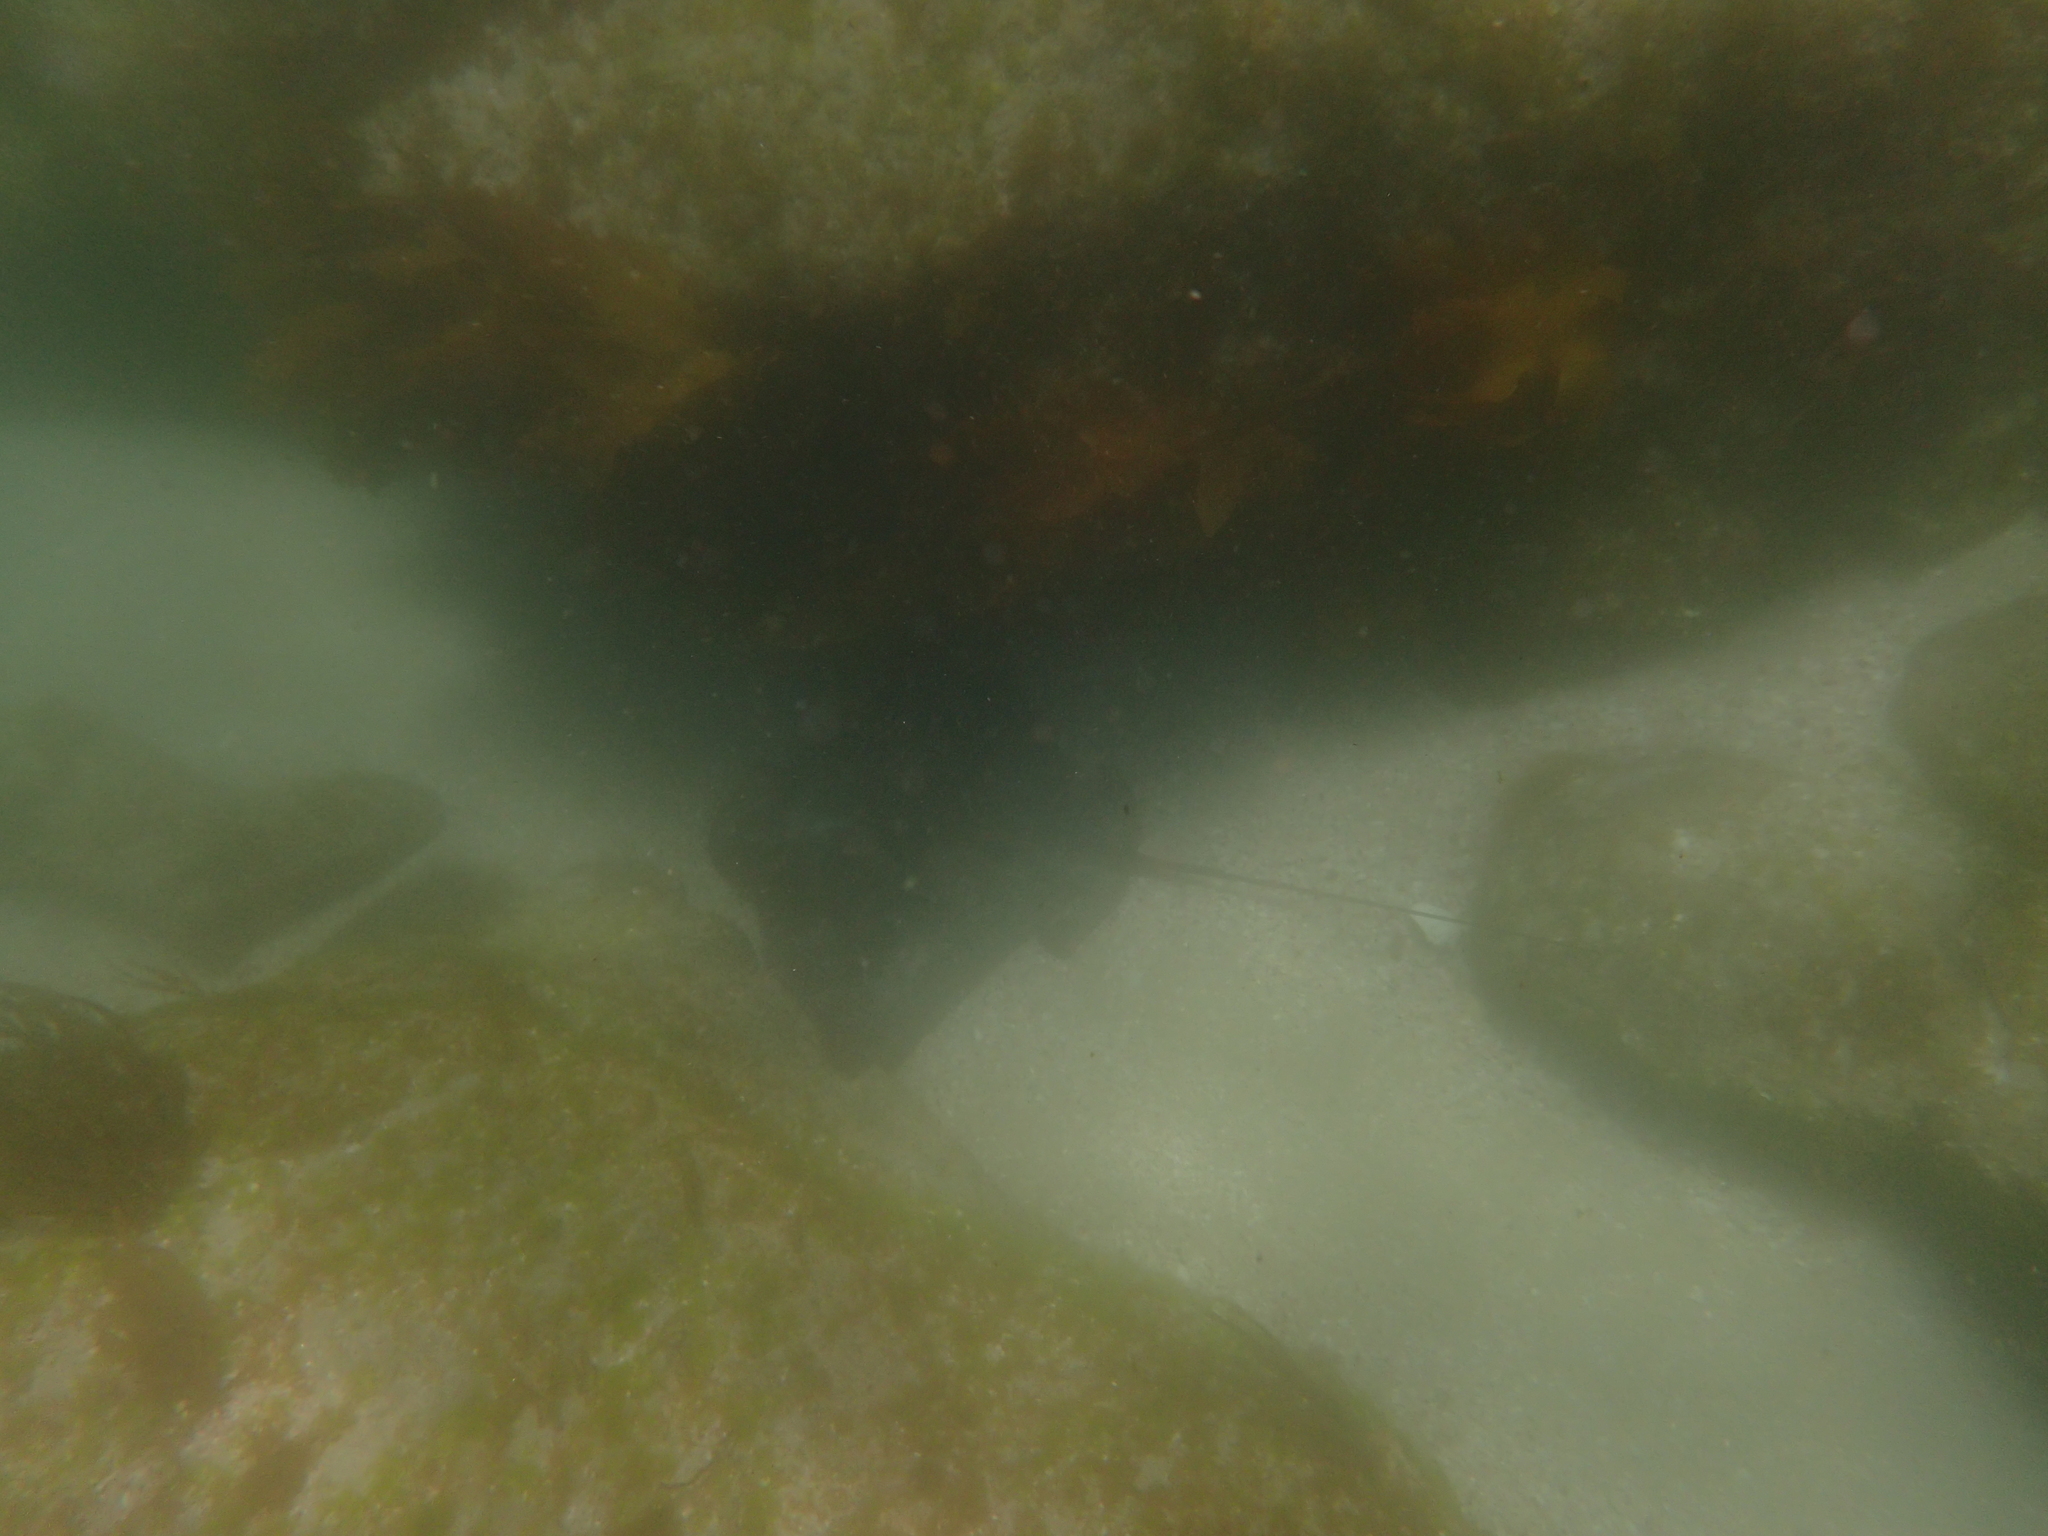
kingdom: Animalia
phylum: Chordata
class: Elasmobranchii
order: Myliobatiformes
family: Myliobatidae
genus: Myliobatis
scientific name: Myliobatis tenuicaudatus
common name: Eagle ray
